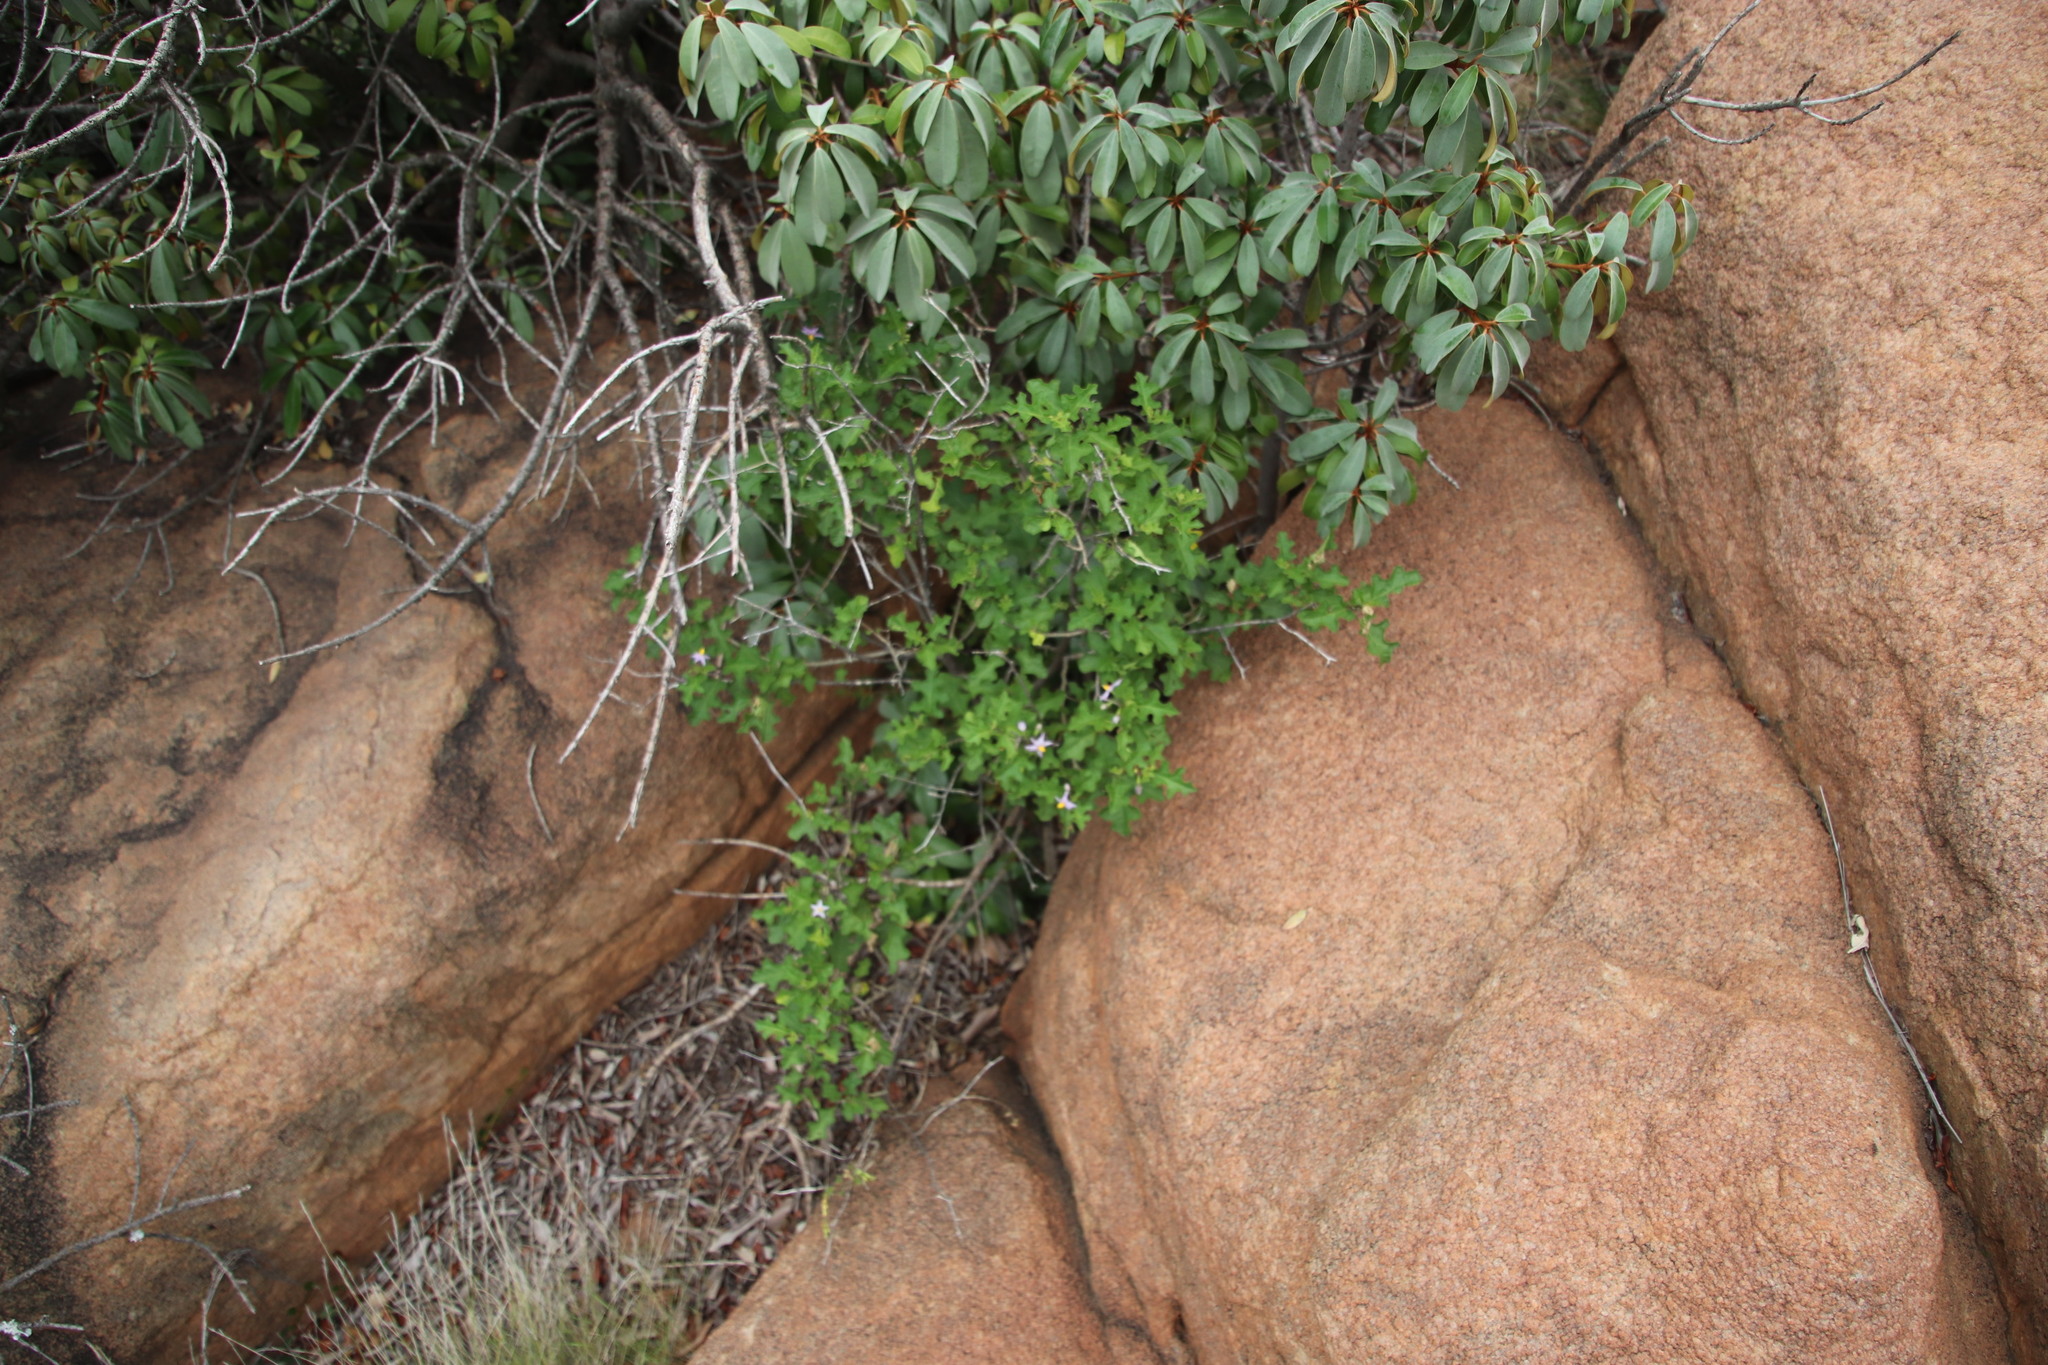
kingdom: Plantae
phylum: Tracheophyta
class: Magnoliopsida
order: Solanales
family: Solanaceae
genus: Solanum
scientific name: Solanum rubetorum
